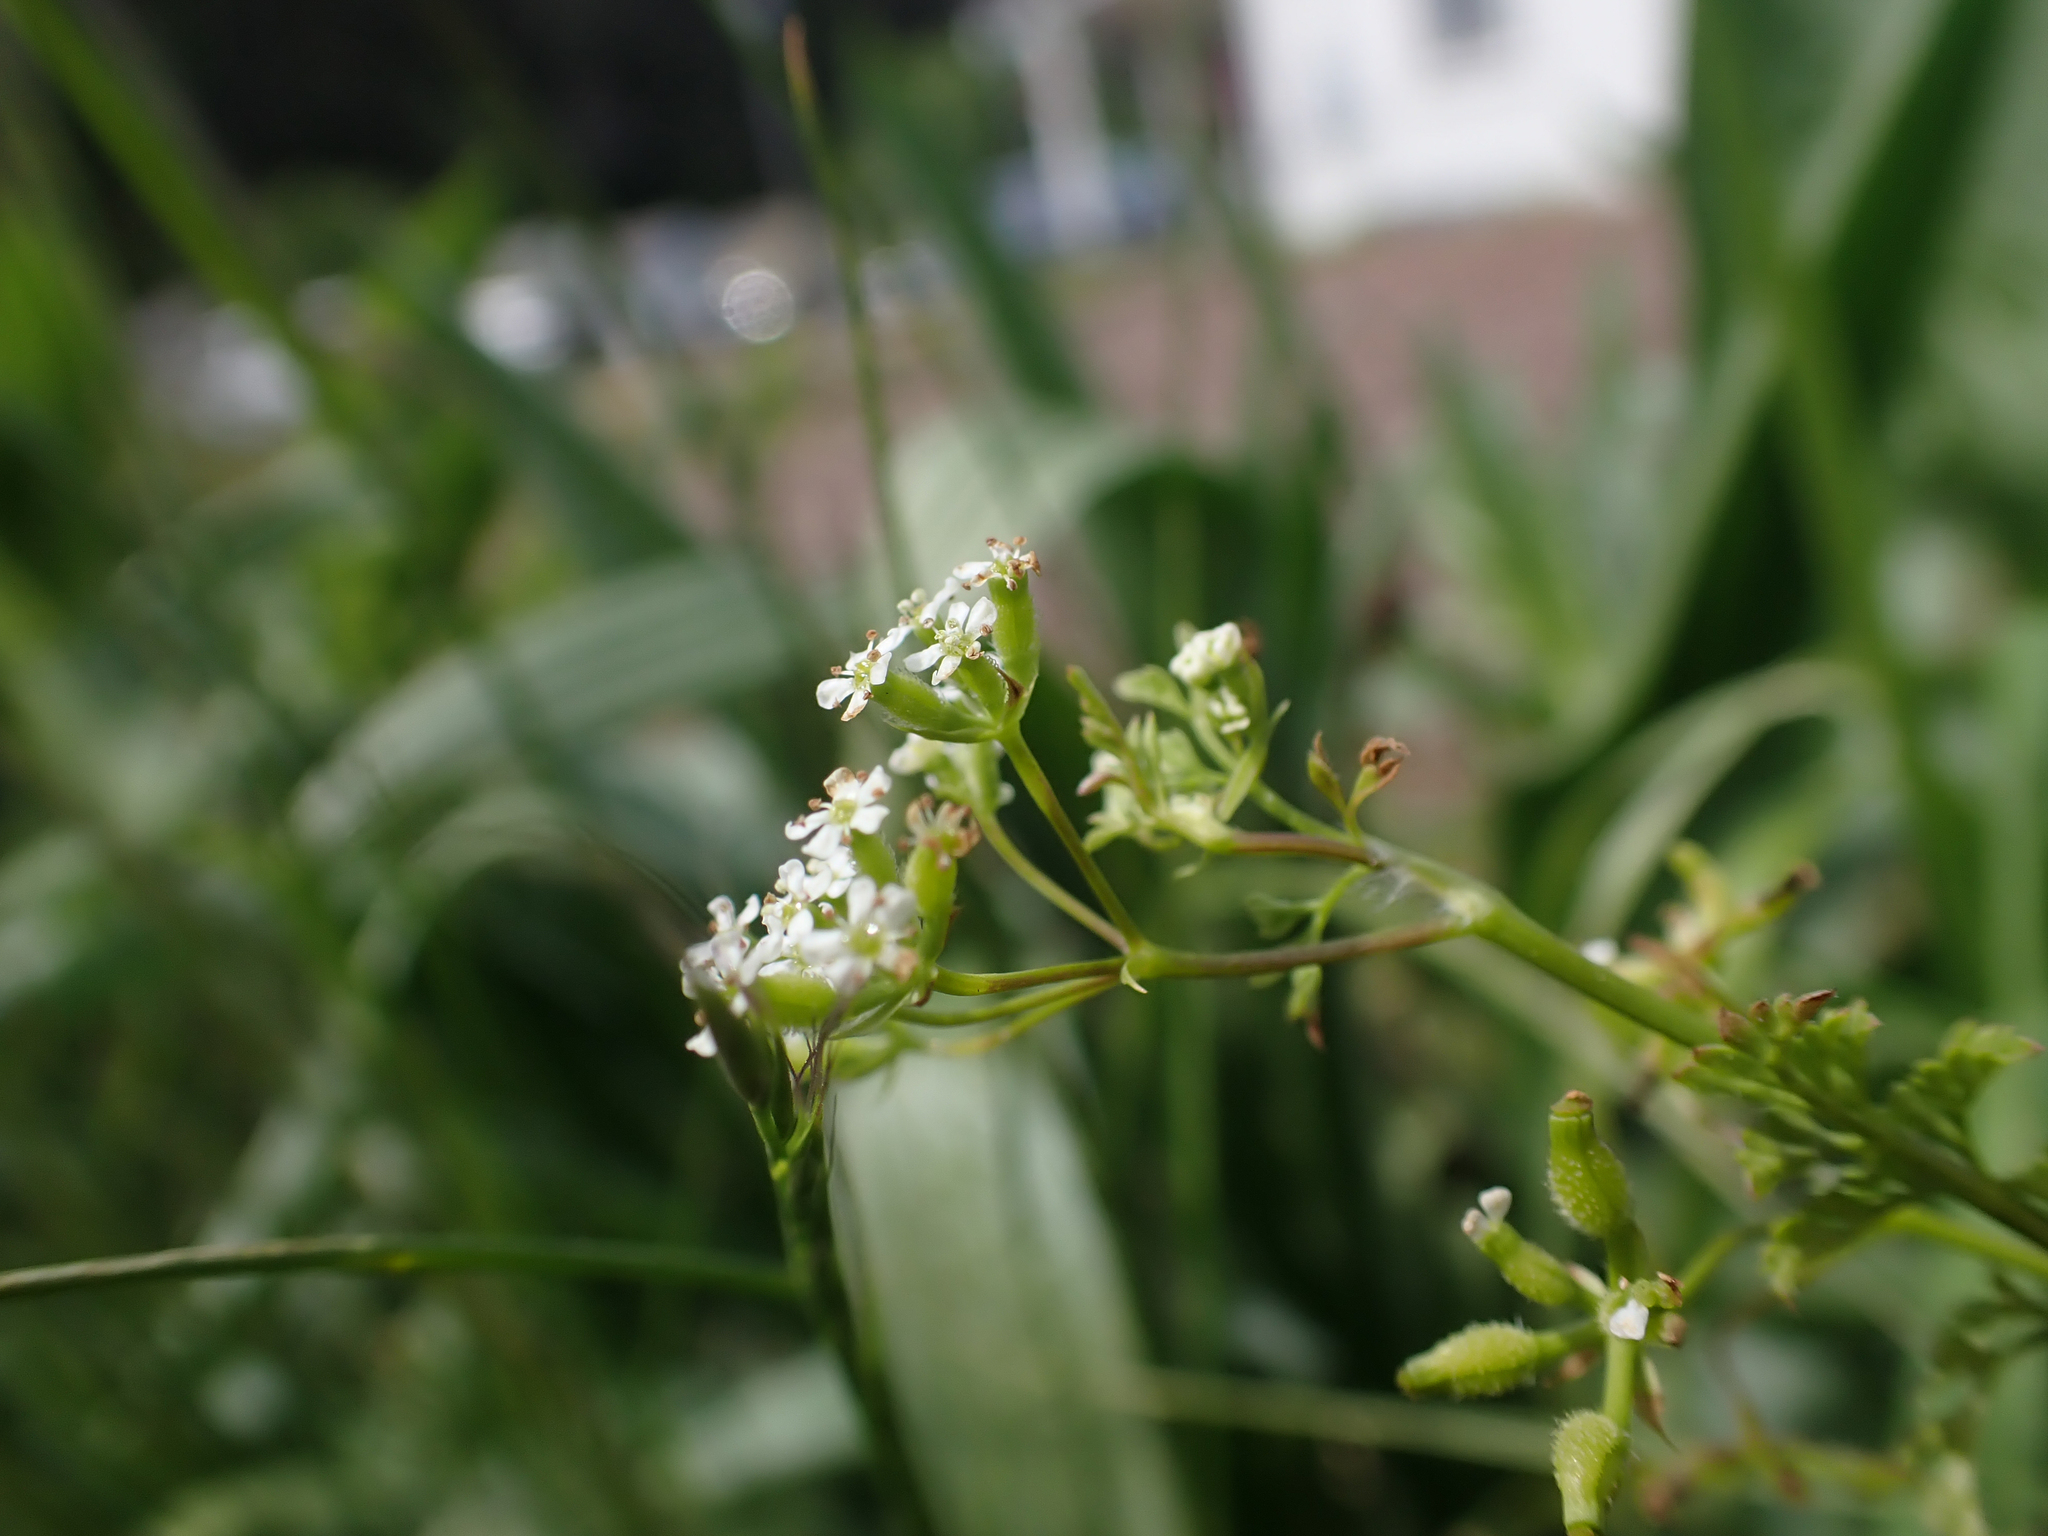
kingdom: Plantae
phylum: Tracheophyta
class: Magnoliopsida
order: Apiales
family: Apiaceae
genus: Anthriscus
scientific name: Anthriscus caucalis
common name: Bur chervil
